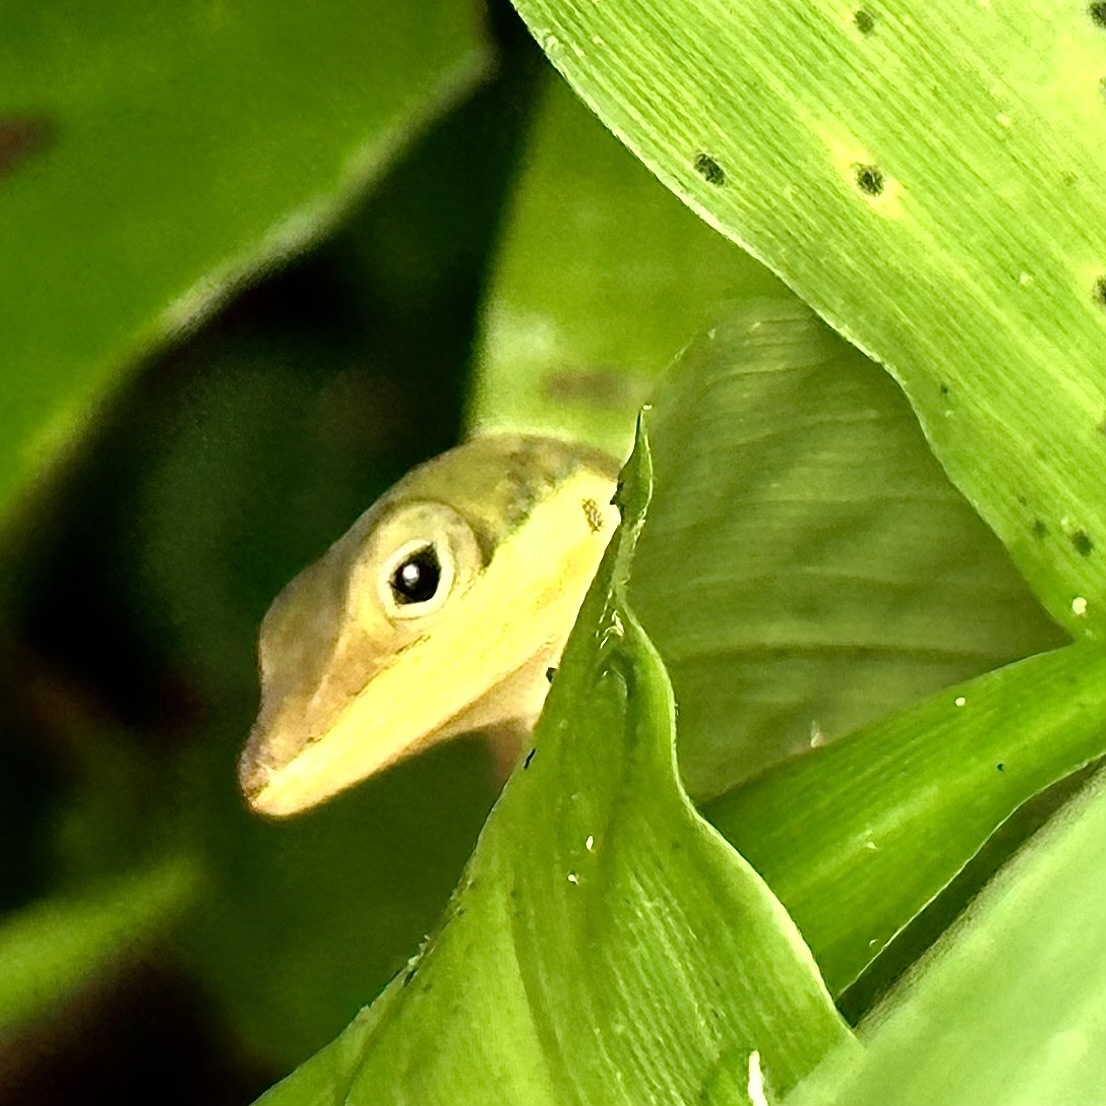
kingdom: Animalia
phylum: Chordata
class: Squamata
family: Dactyloidae
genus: Anolis
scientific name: Anolis krugi
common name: Krug's anole
